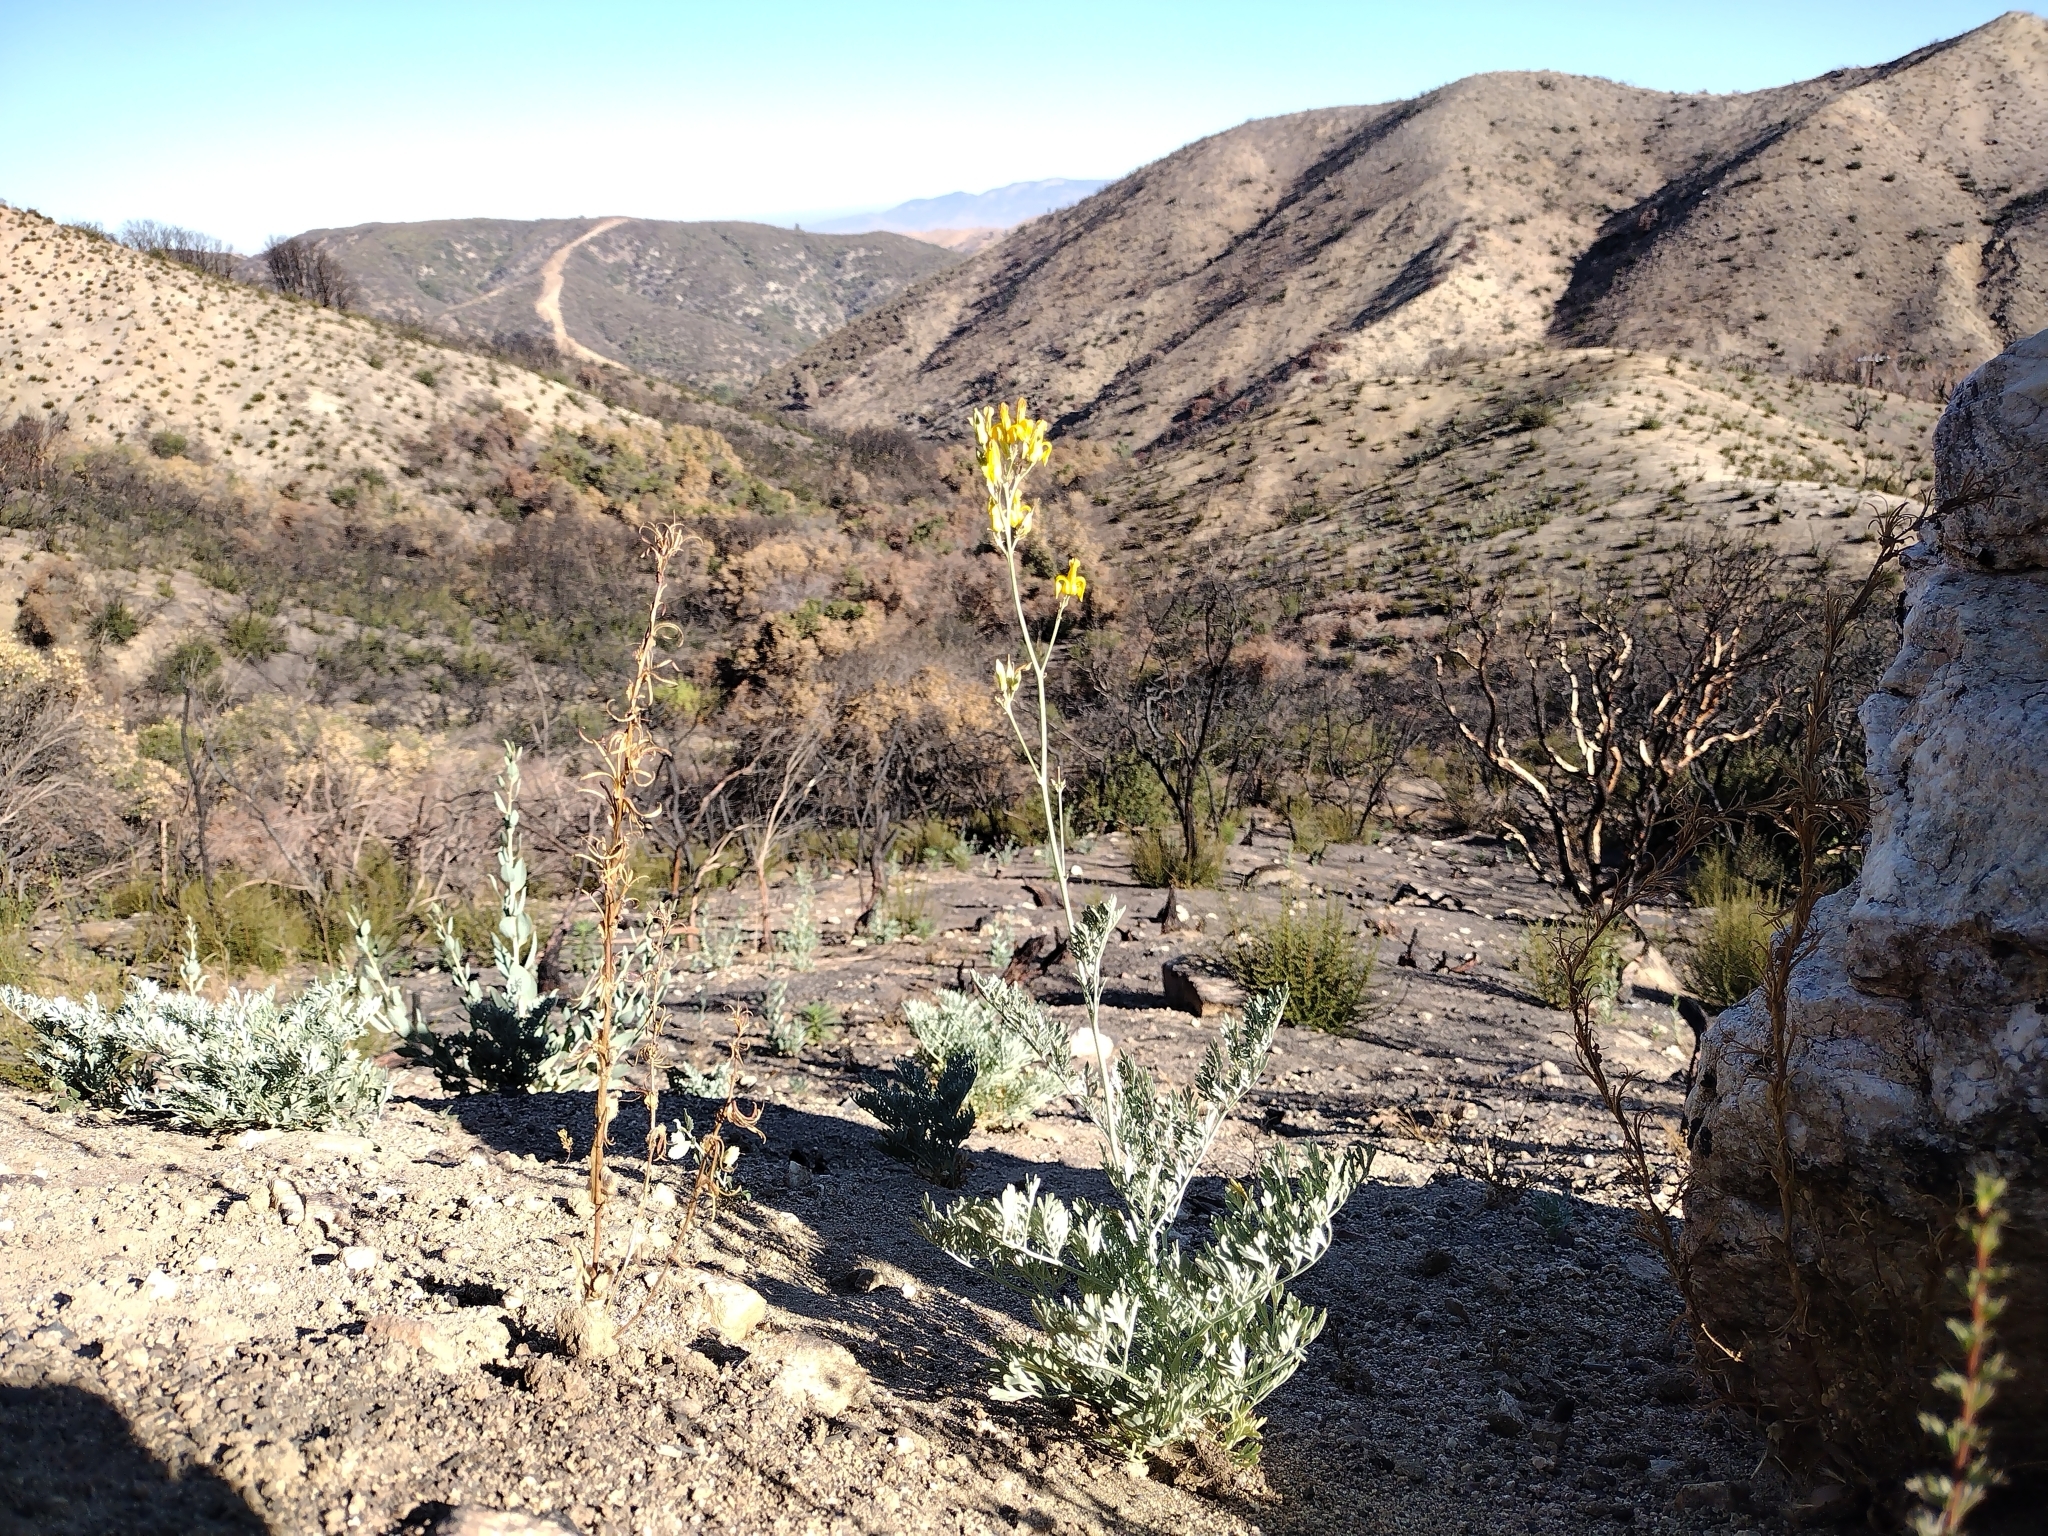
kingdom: Plantae
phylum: Tracheophyta
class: Magnoliopsida
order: Ranunculales
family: Papaveraceae
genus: Ehrendorferia
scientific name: Ehrendorferia chrysantha
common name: Golden eardrops
